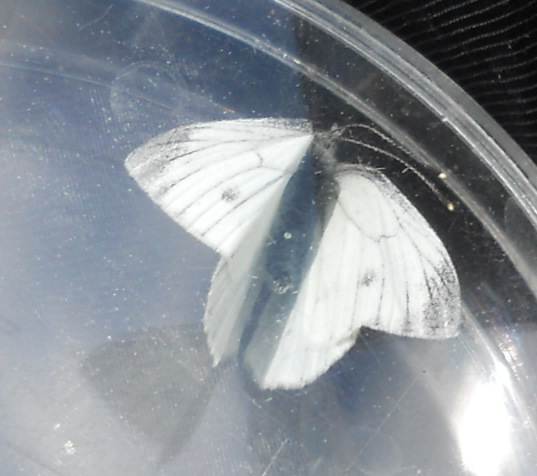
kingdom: Animalia
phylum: Arthropoda
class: Insecta
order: Lepidoptera
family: Pieridae
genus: Pieris
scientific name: Pieris napi
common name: Green-veined white
